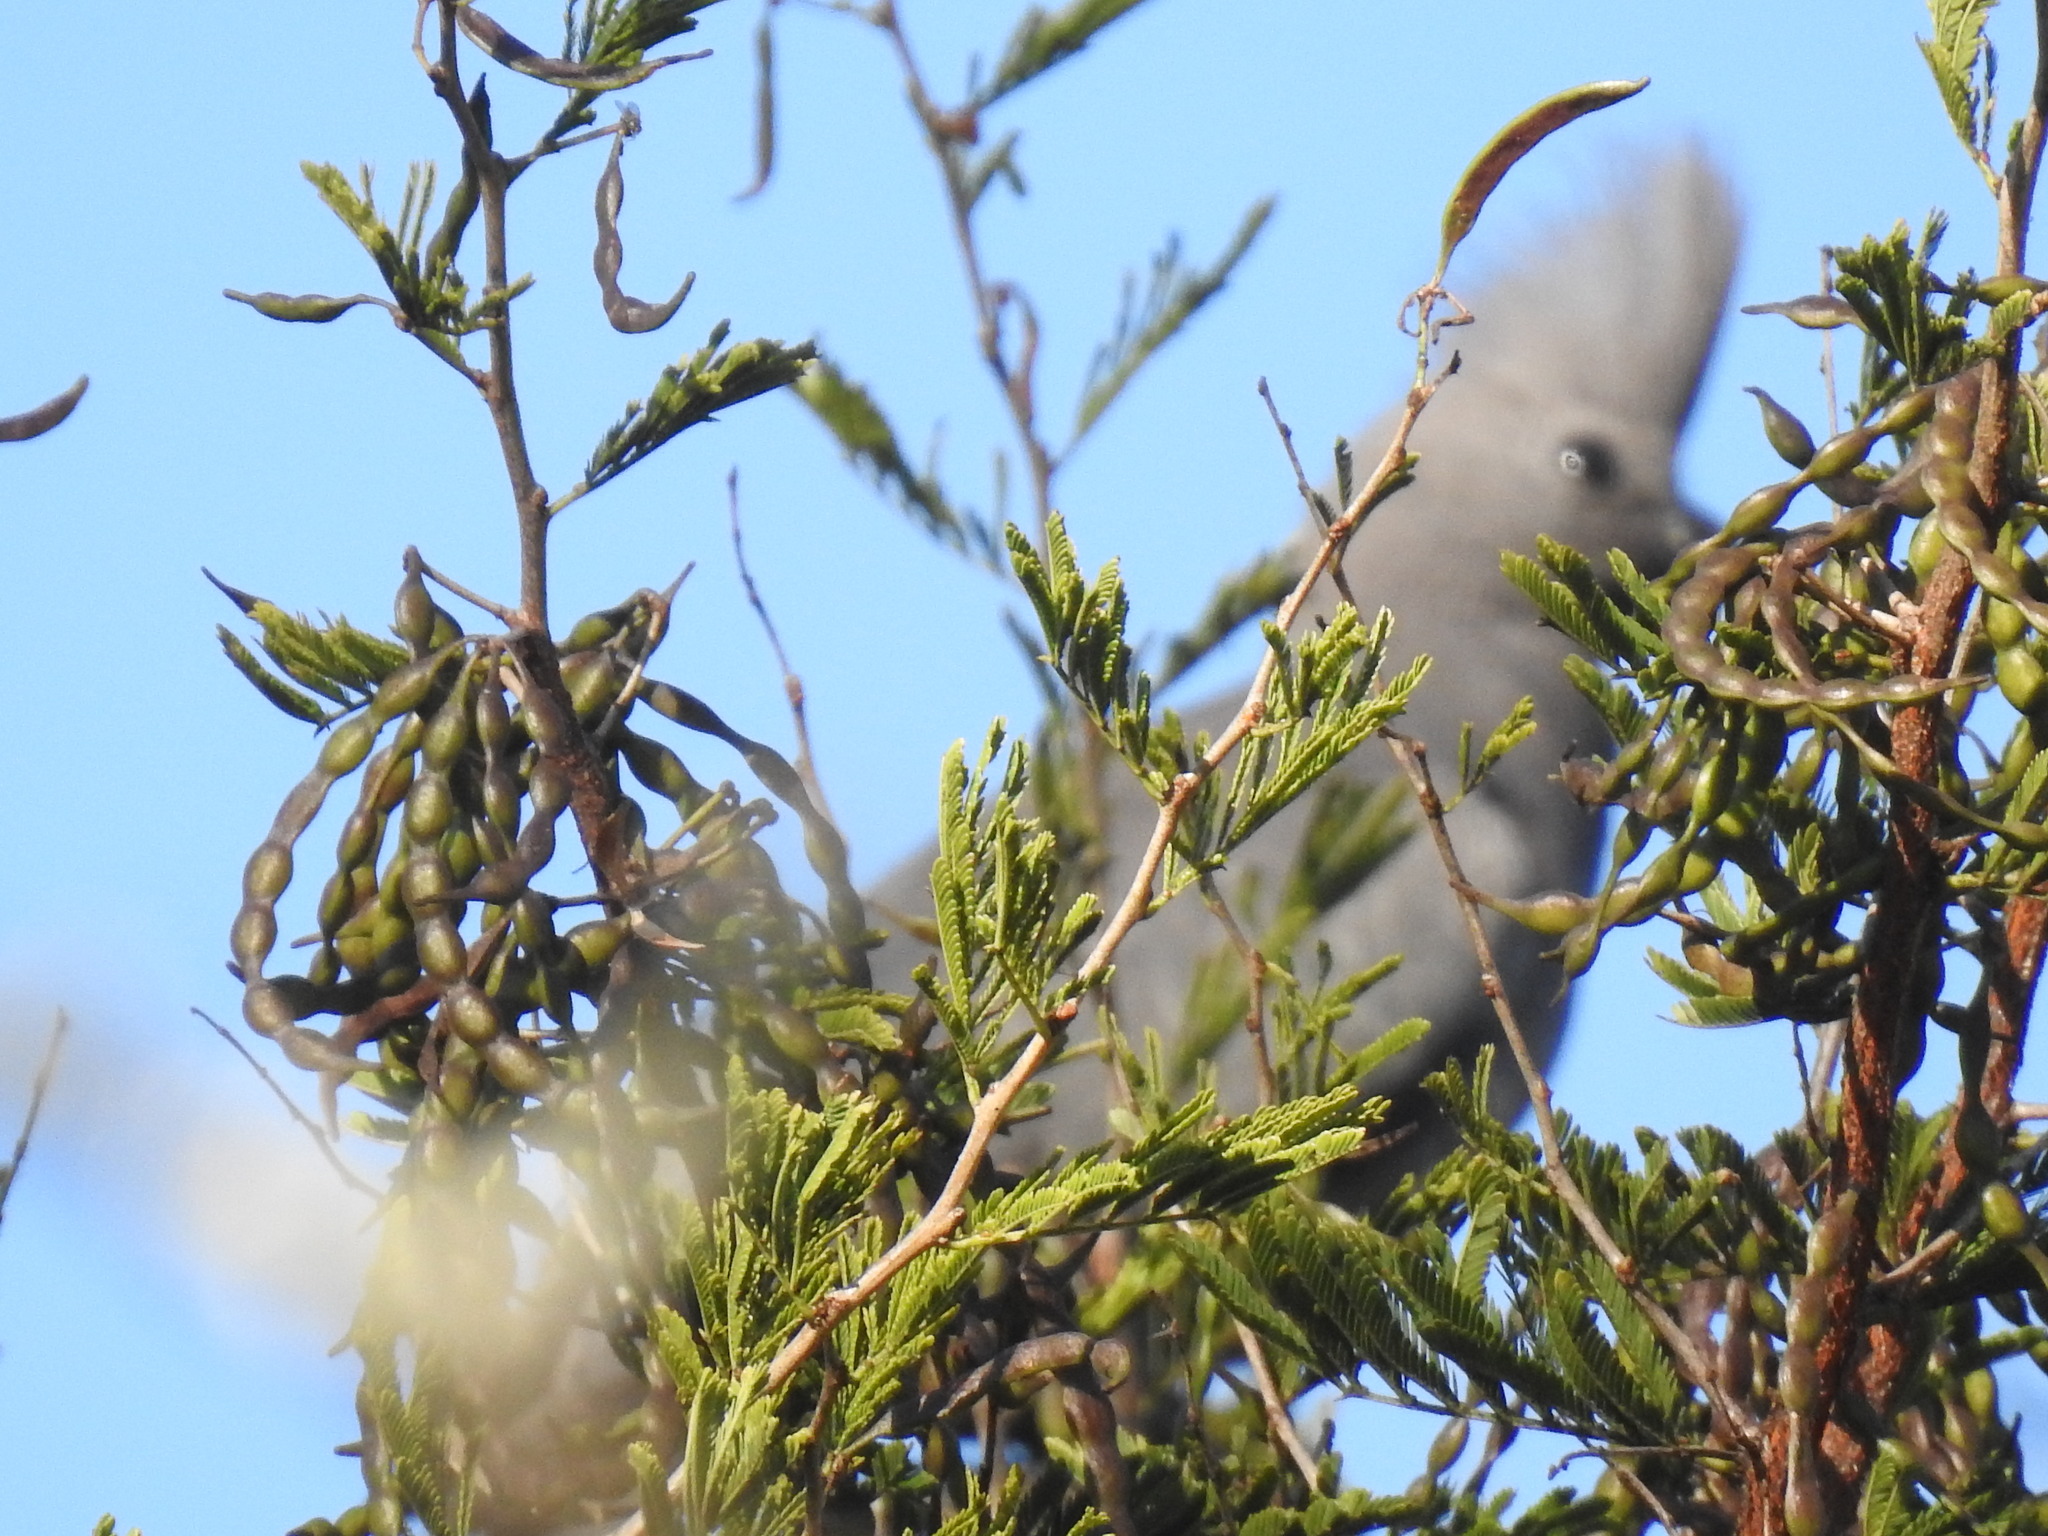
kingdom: Animalia
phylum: Chordata
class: Aves
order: Musophagiformes
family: Musophagidae
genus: Corythaixoides
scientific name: Corythaixoides concolor
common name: Grey go-away-bird
